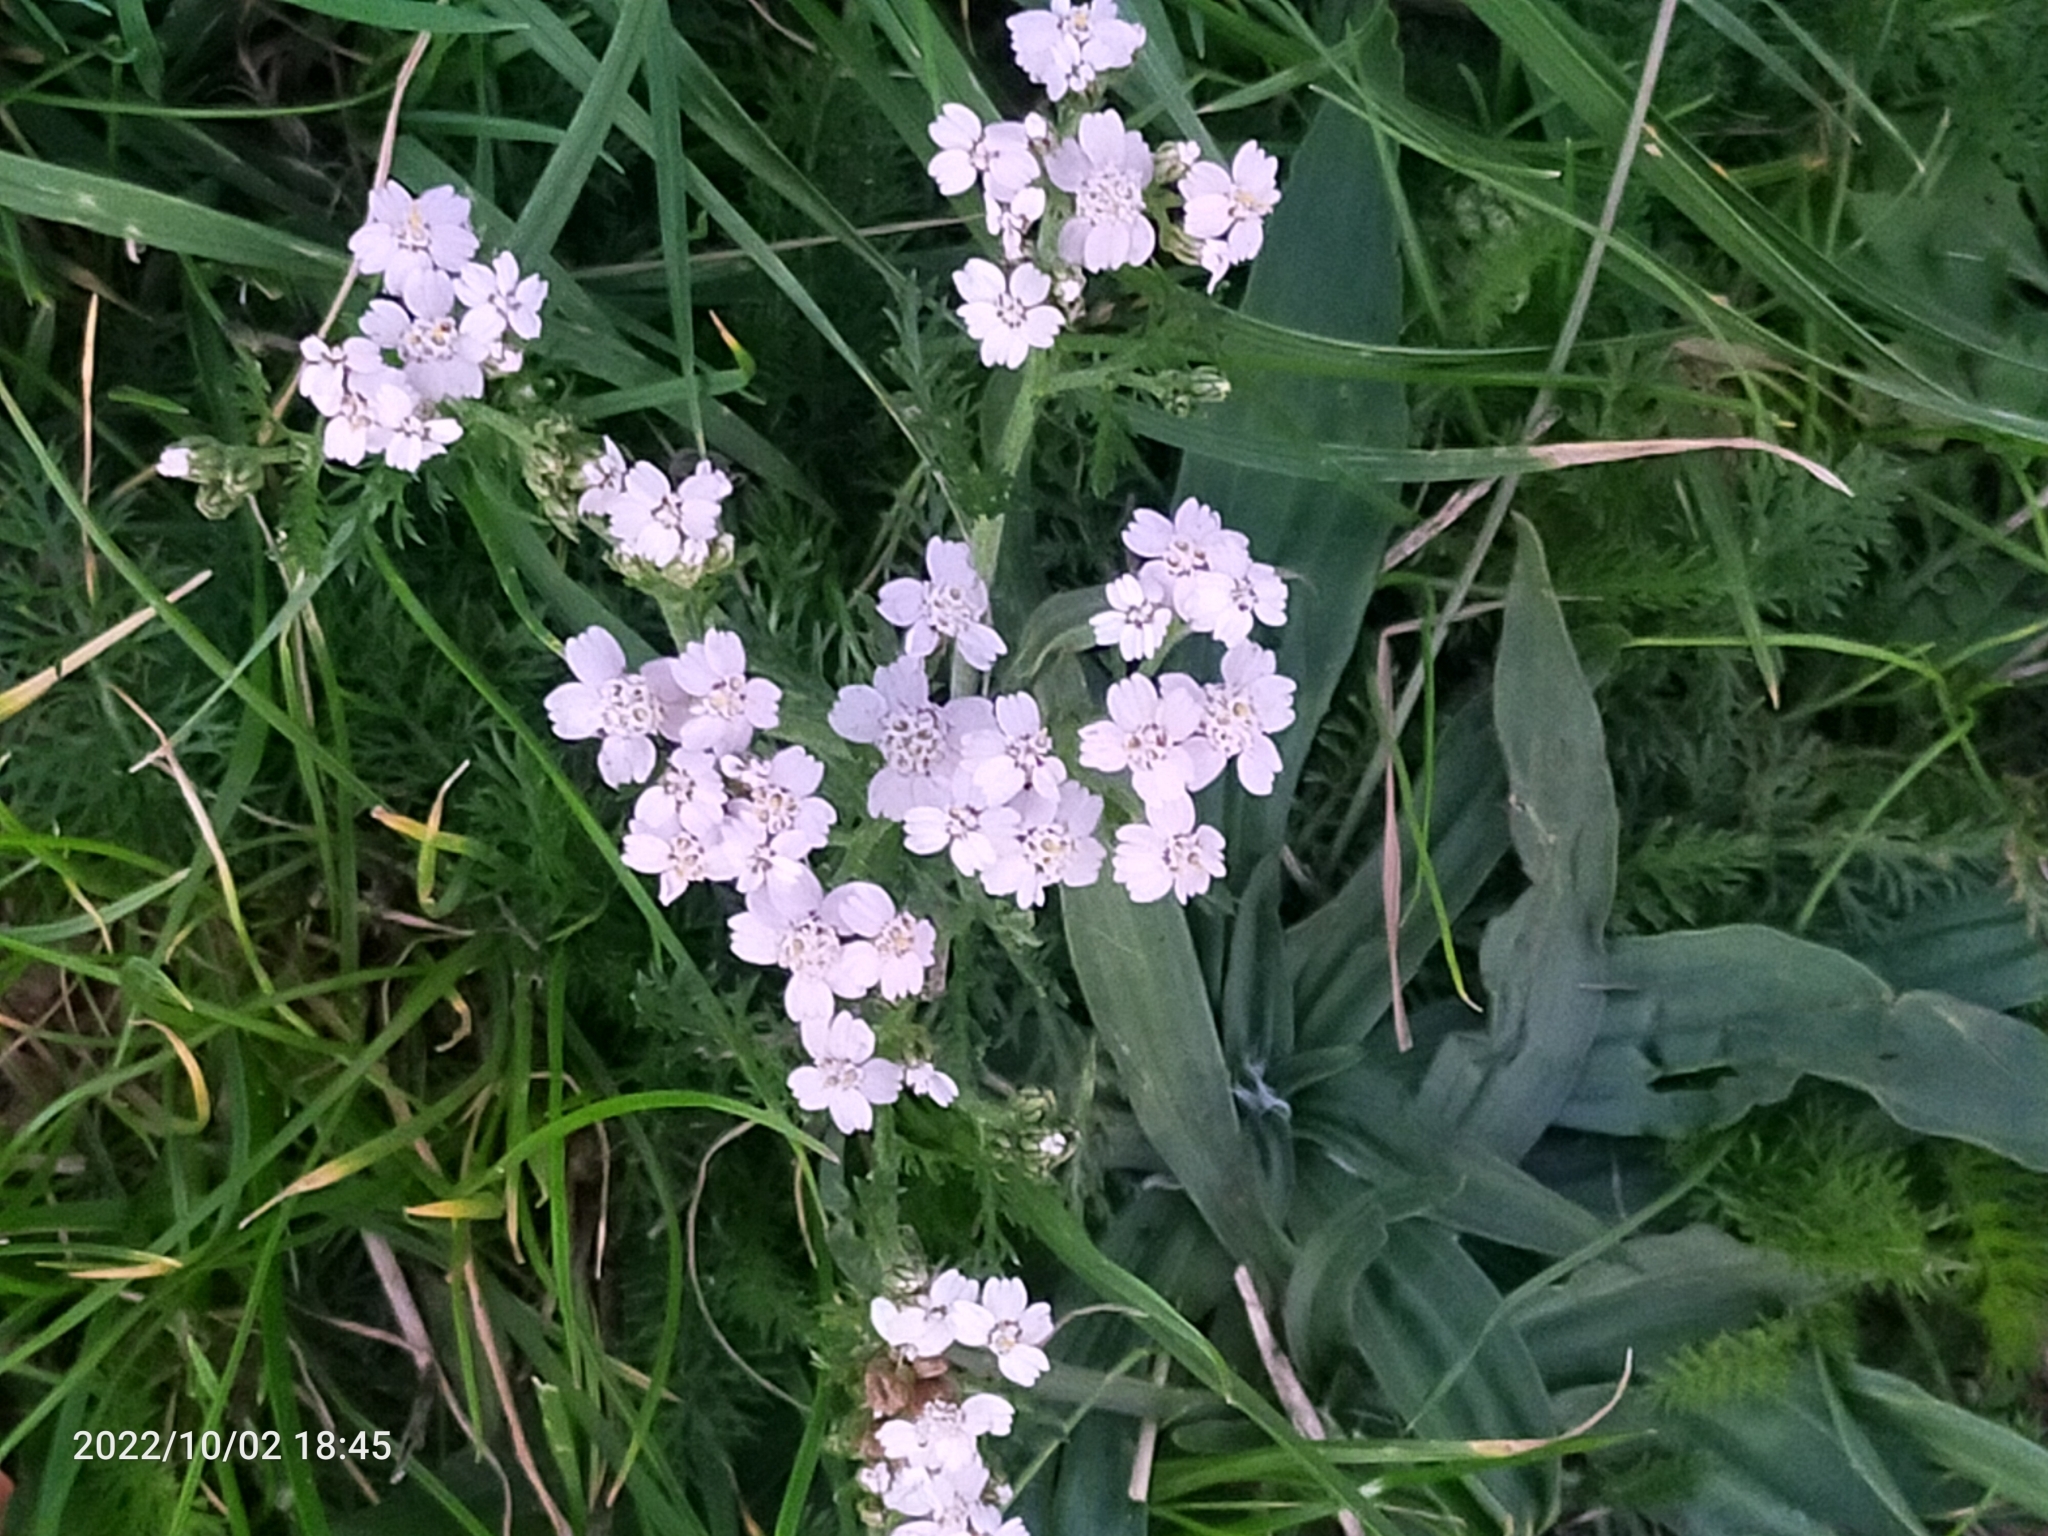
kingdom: Plantae
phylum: Tracheophyta
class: Magnoliopsida
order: Asterales
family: Asteraceae
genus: Achillea
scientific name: Achillea millefolium
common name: Yarrow
